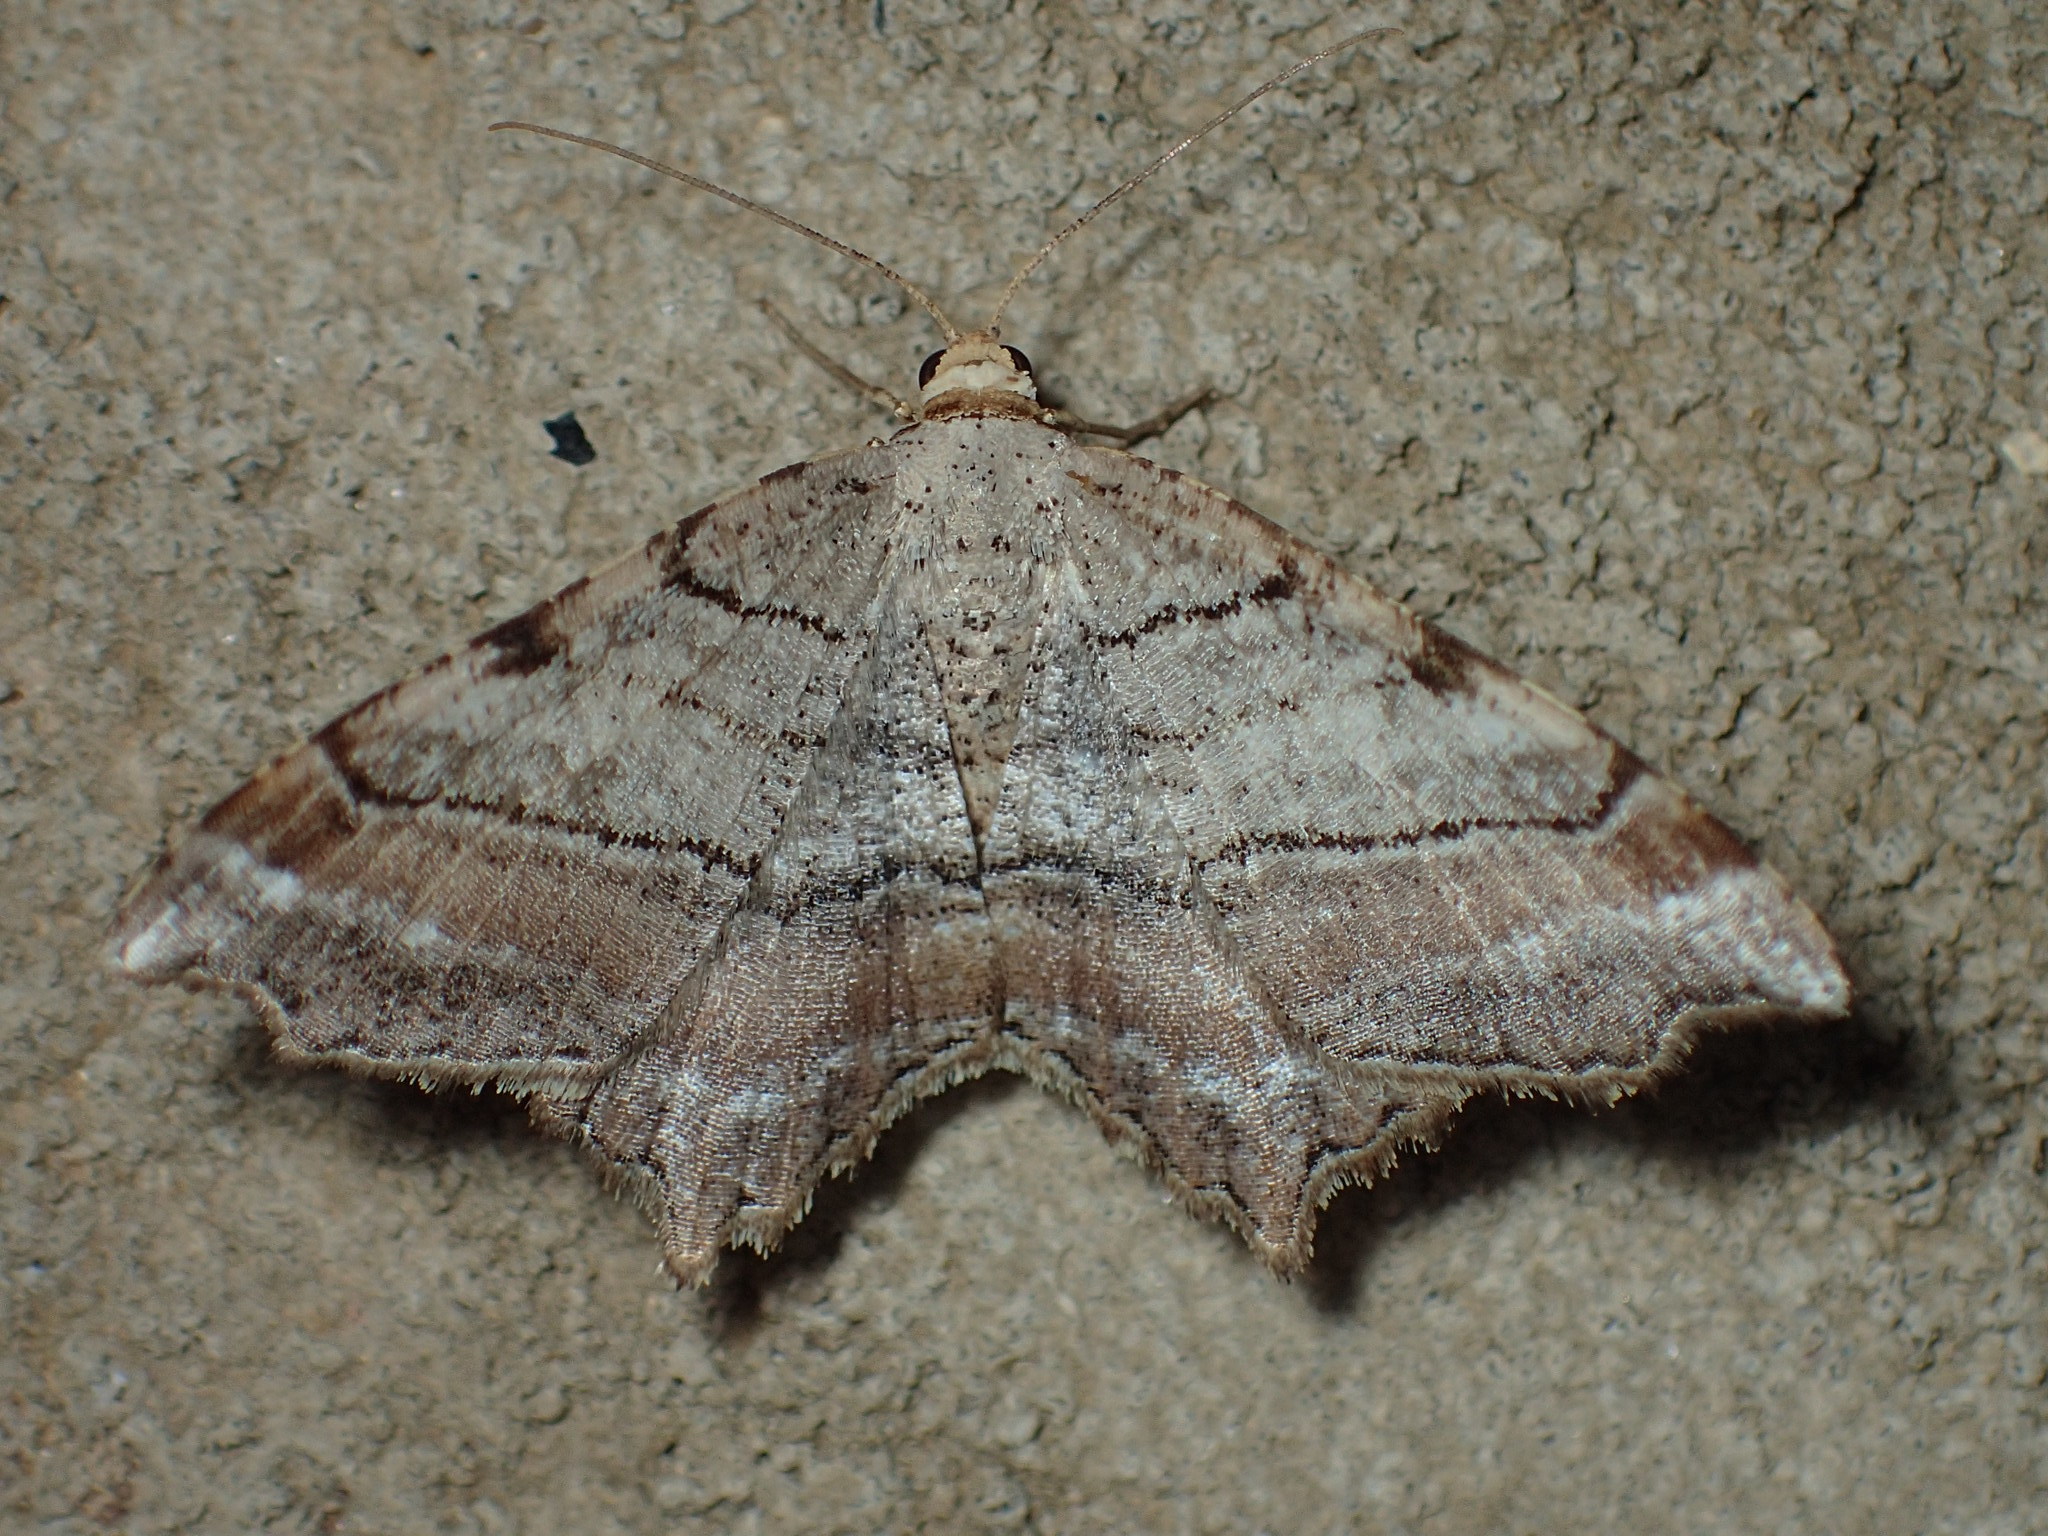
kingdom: Animalia
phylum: Arthropoda
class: Insecta
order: Lepidoptera
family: Geometridae
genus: Macaria
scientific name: Macaria multilineata
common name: Many-lined angle
